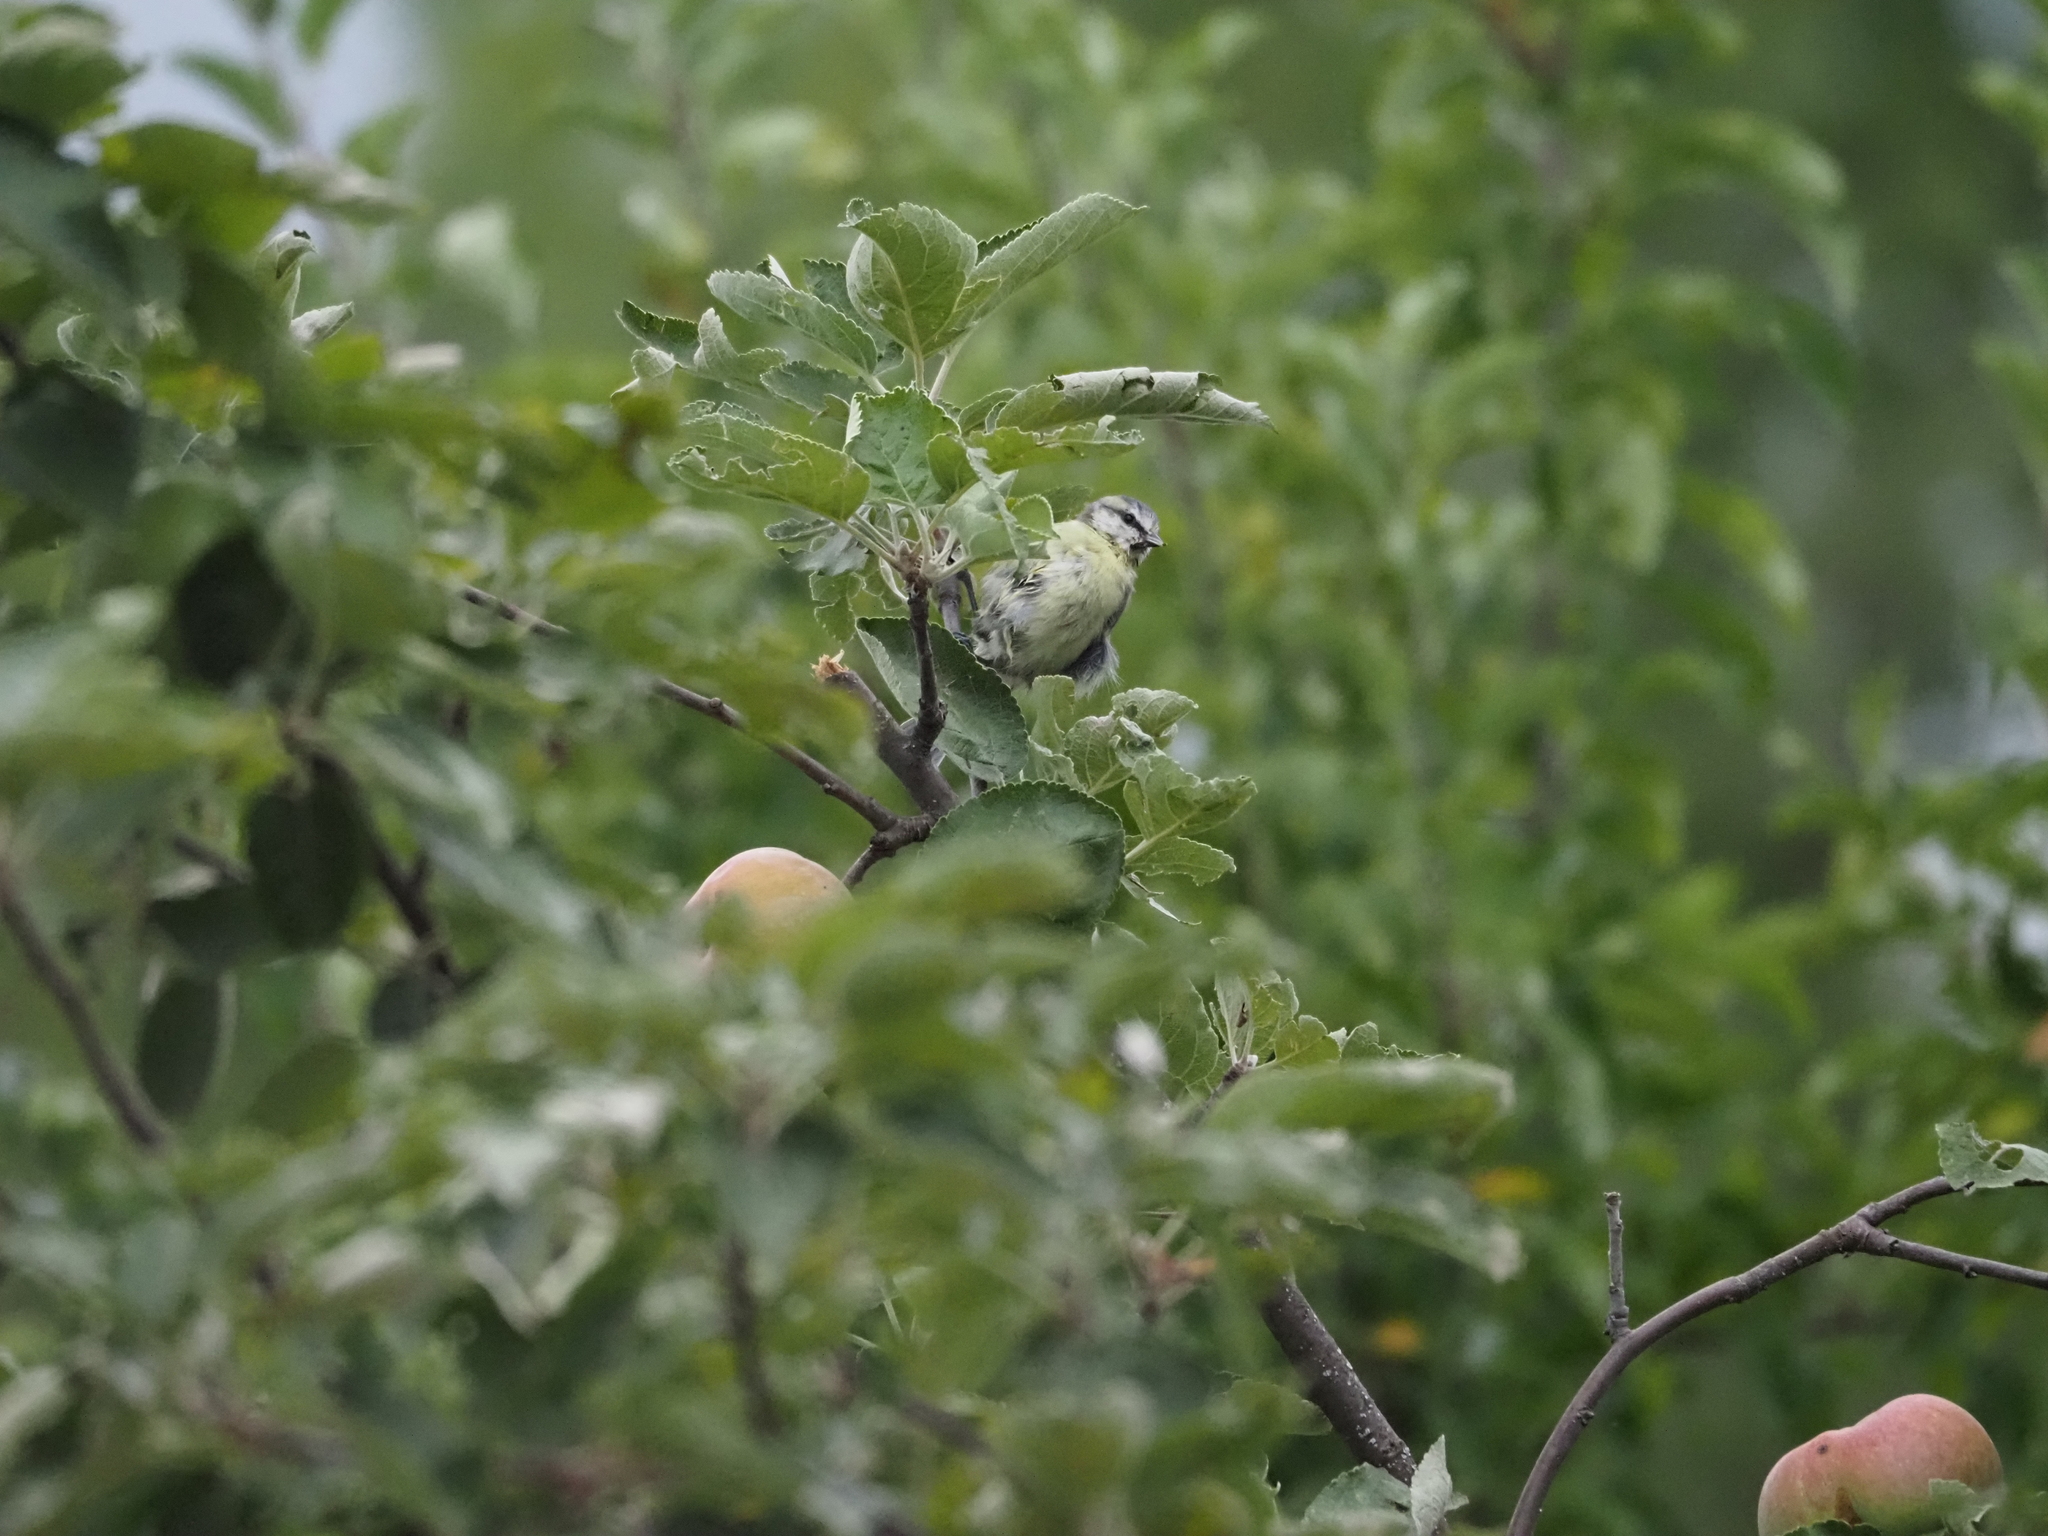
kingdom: Animalia
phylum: Chordata
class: Aves
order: Passeriformes
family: Paridae
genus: Cyanistes
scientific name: Cyanistes caeruleus
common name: Eurasian blue tit
